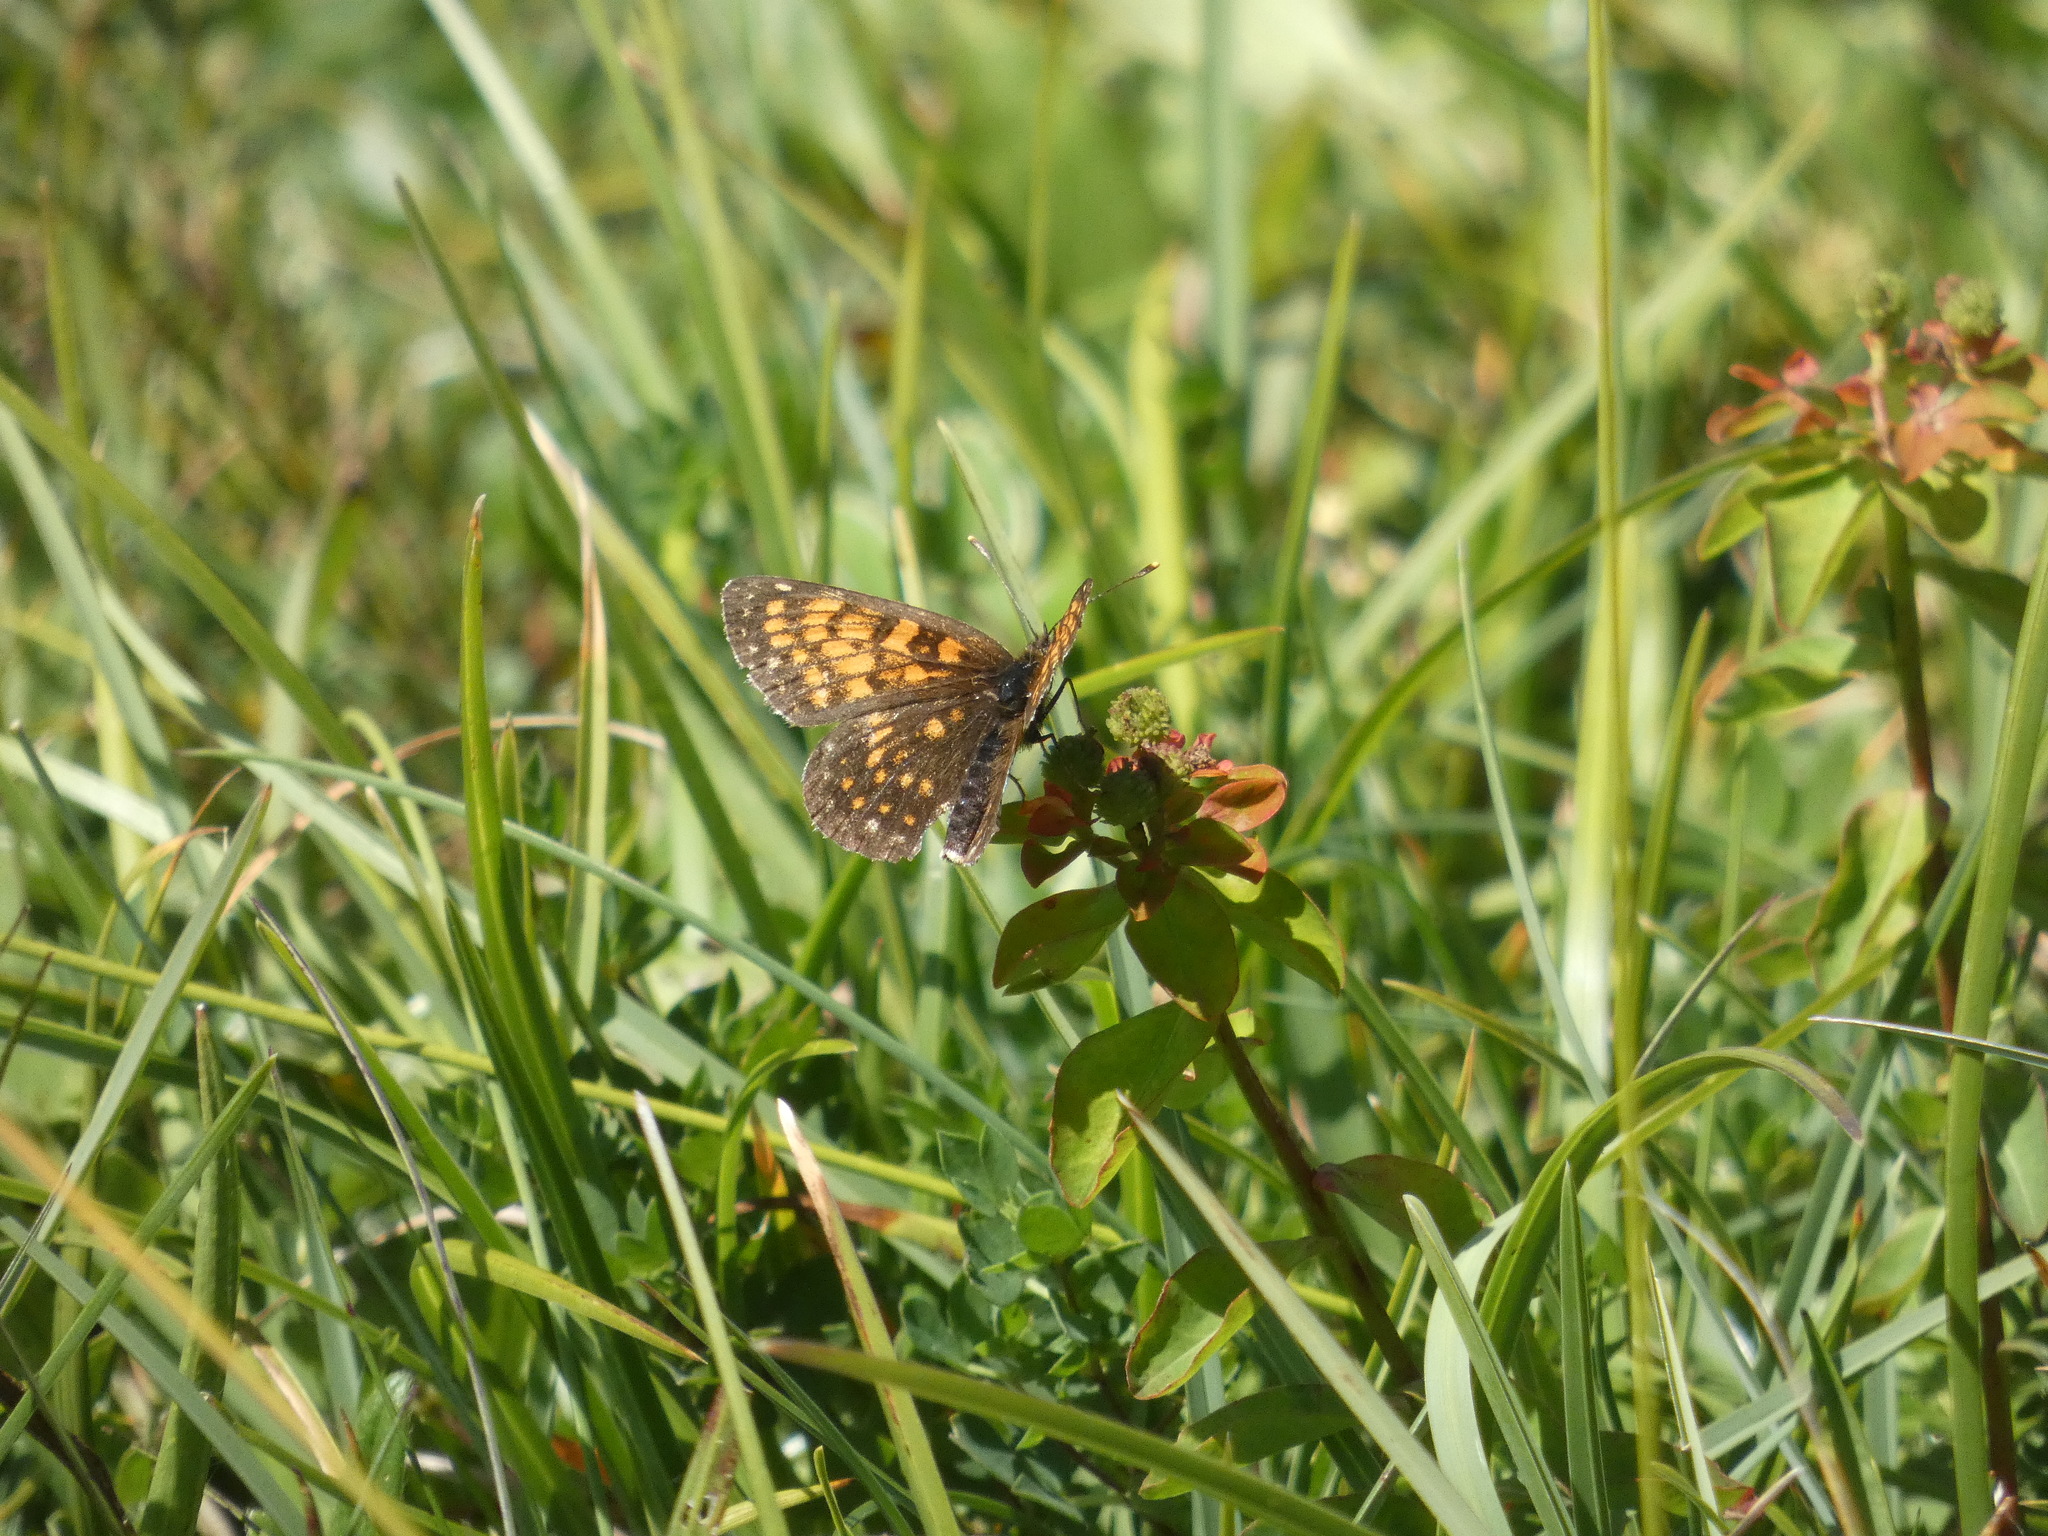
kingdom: Animalia
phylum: Arthropoda
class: Insecta
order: Lepidoptera
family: Nymphalidae
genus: Melitaea
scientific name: Melitaea diamina
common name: False heath fritillary
